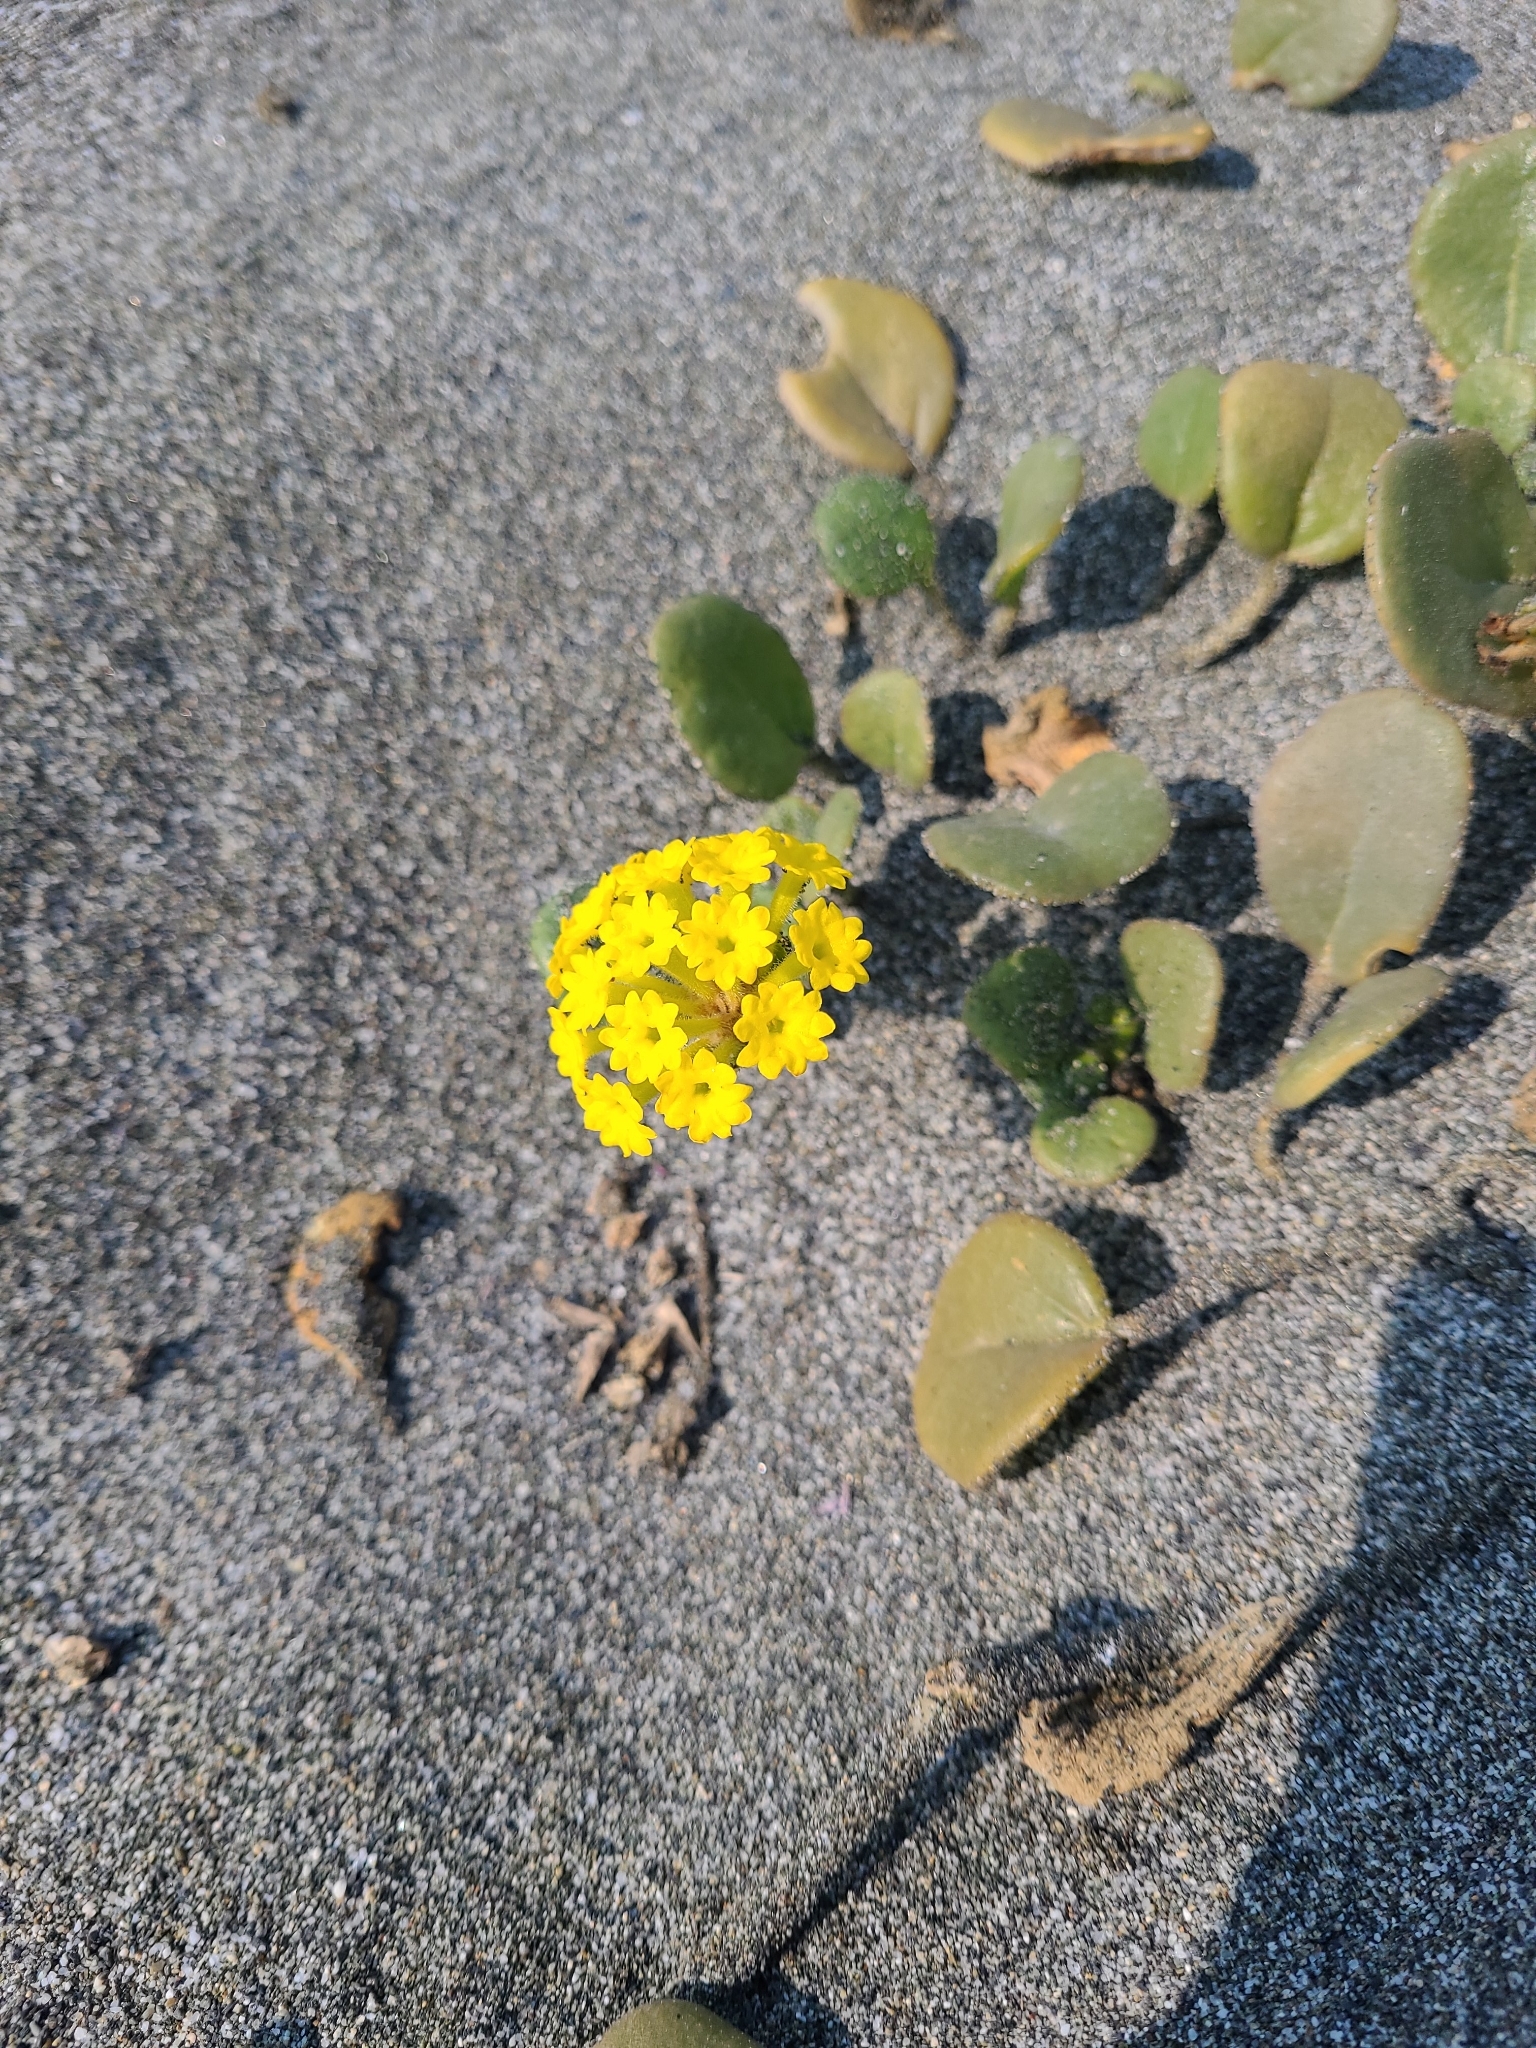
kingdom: Plantae
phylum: Tracheophyta
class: Magnoliopsida
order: Caryophyllales
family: Nyctaginaceae
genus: Abronia
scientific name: Abronia latifolia
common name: Yellow sand-verbena
